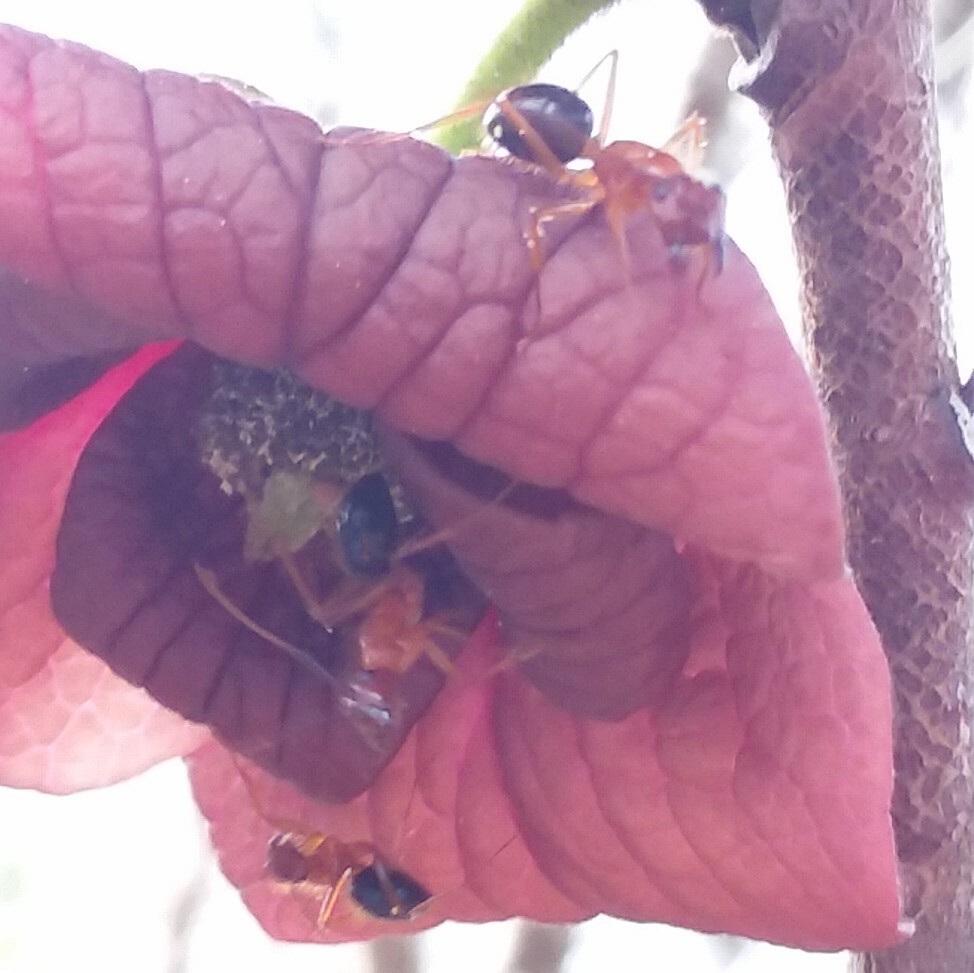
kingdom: Animalia
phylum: Arthropoda
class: Insecta
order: Hymenoptera
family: Formicidae
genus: Camponotus
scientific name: Camponotus floridanus
